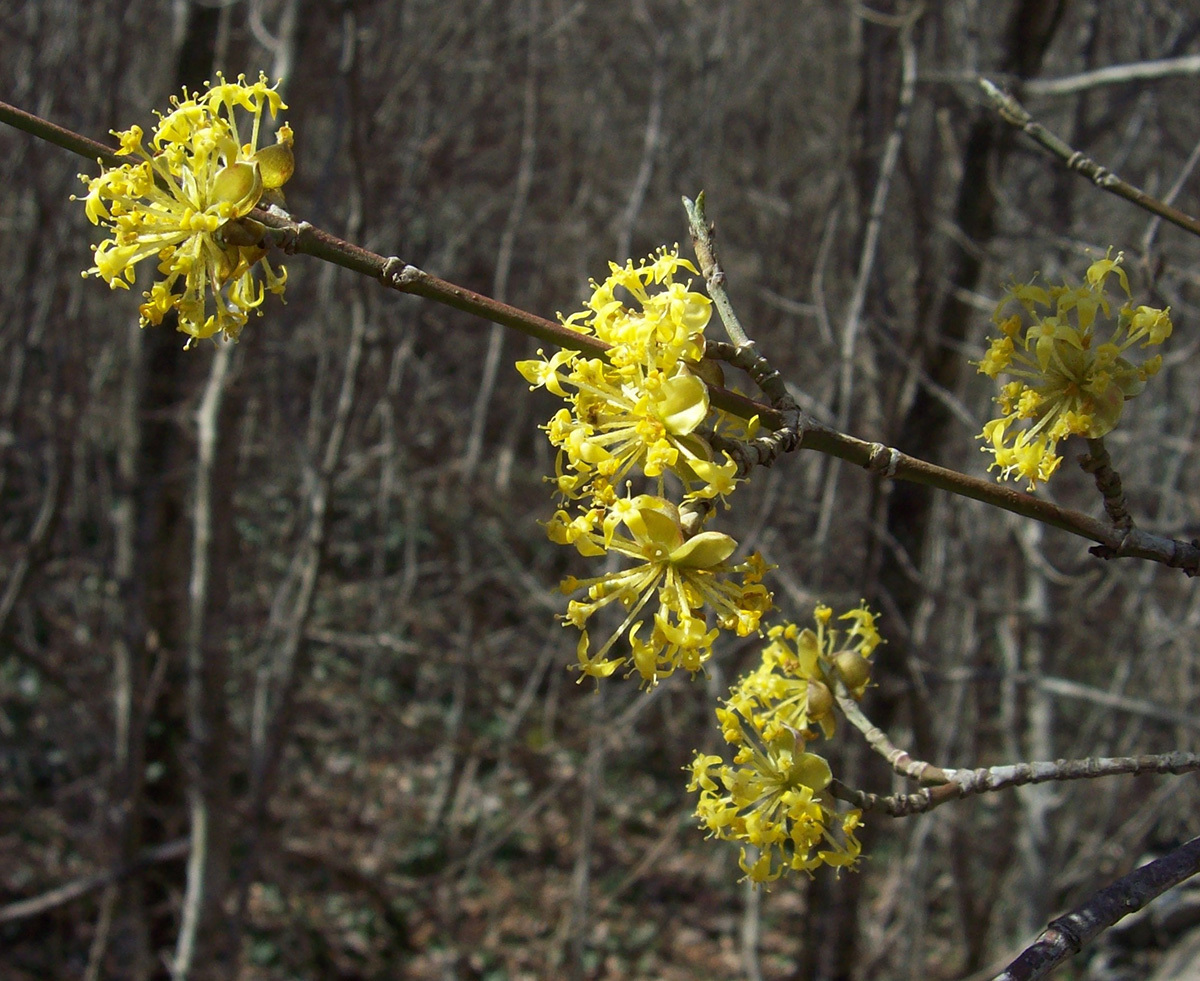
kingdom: Plantae
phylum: Tracheophyta
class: Magnoliopsida
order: Cornales
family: Cornaceae
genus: Cornus
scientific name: Cornus mas
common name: Cornelian-cherry
